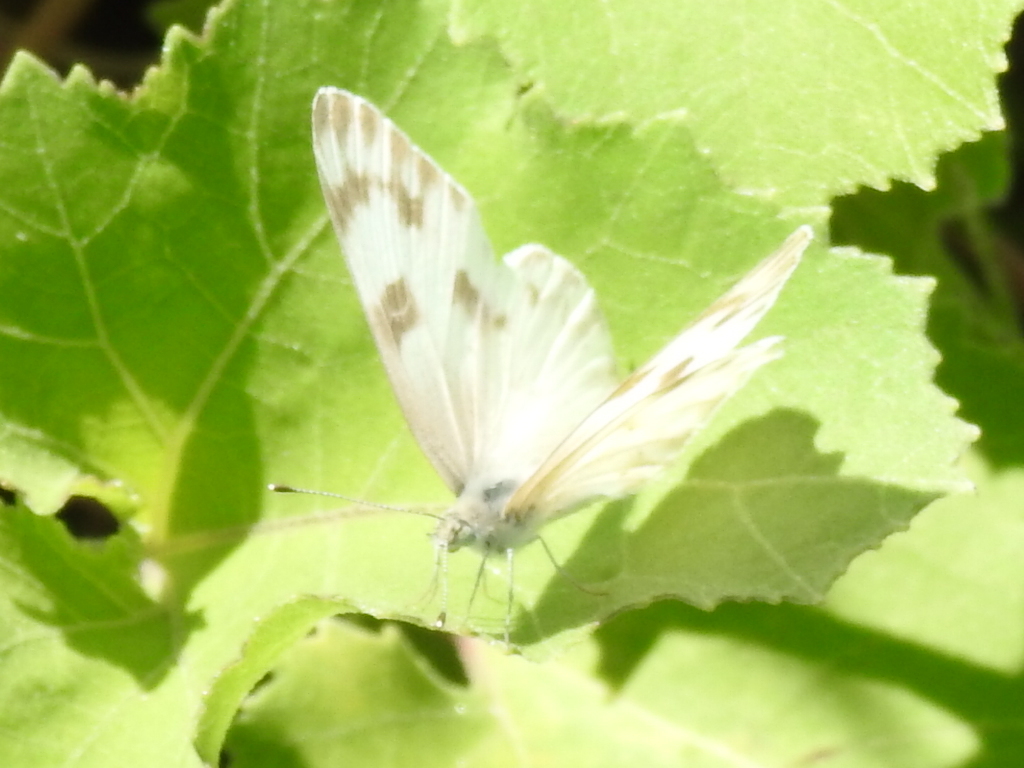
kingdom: Animalia
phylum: Arthropoda
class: Insecta
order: Lepidoptera
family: Pieridae
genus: Pontia
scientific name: Pontia protodice
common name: Checkered white
